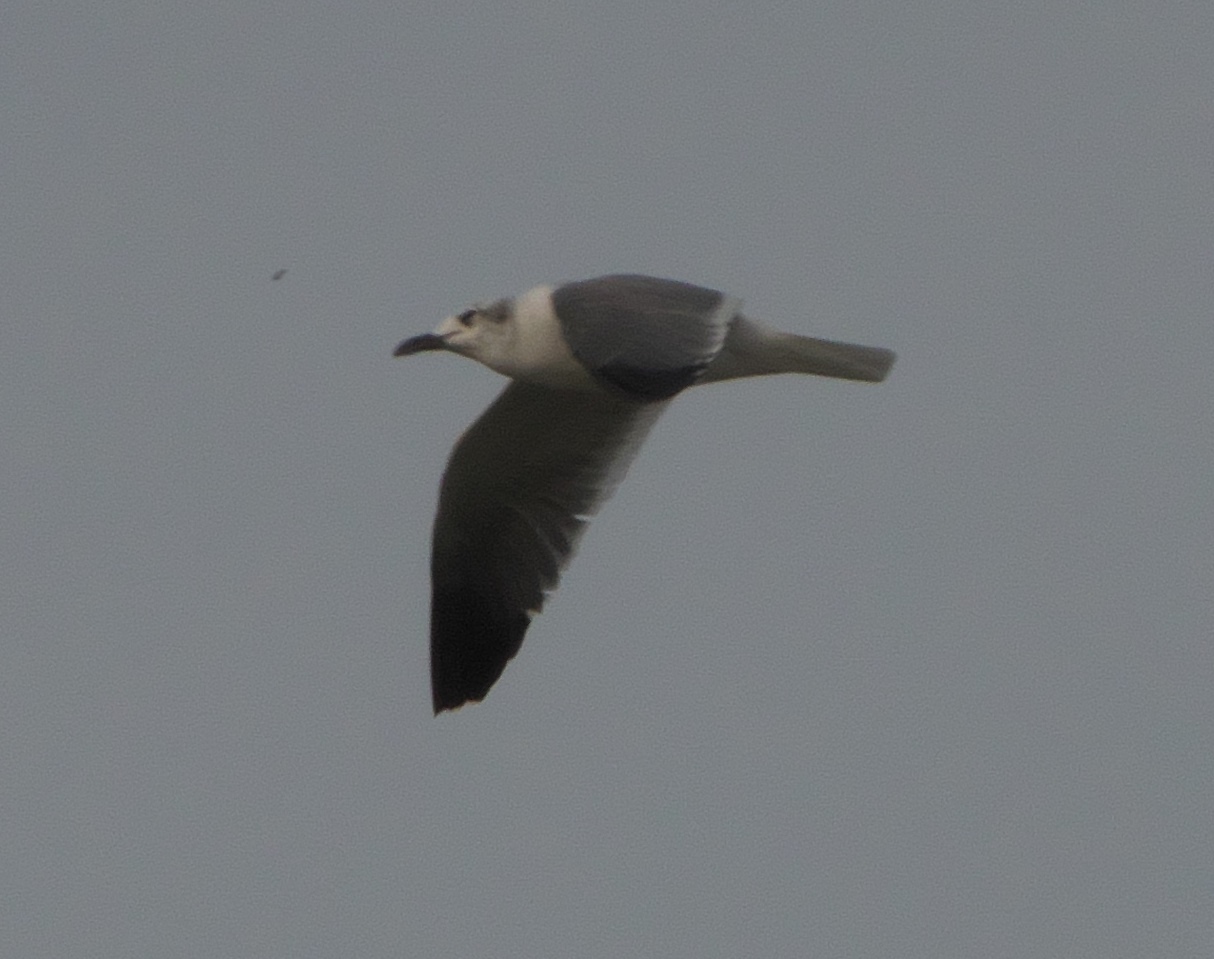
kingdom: Animalia
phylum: Chordata
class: Aves
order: Charadriiformes
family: Laridae
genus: Leucophaeus
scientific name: Leucophaeus atricilla
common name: Laughing gull
